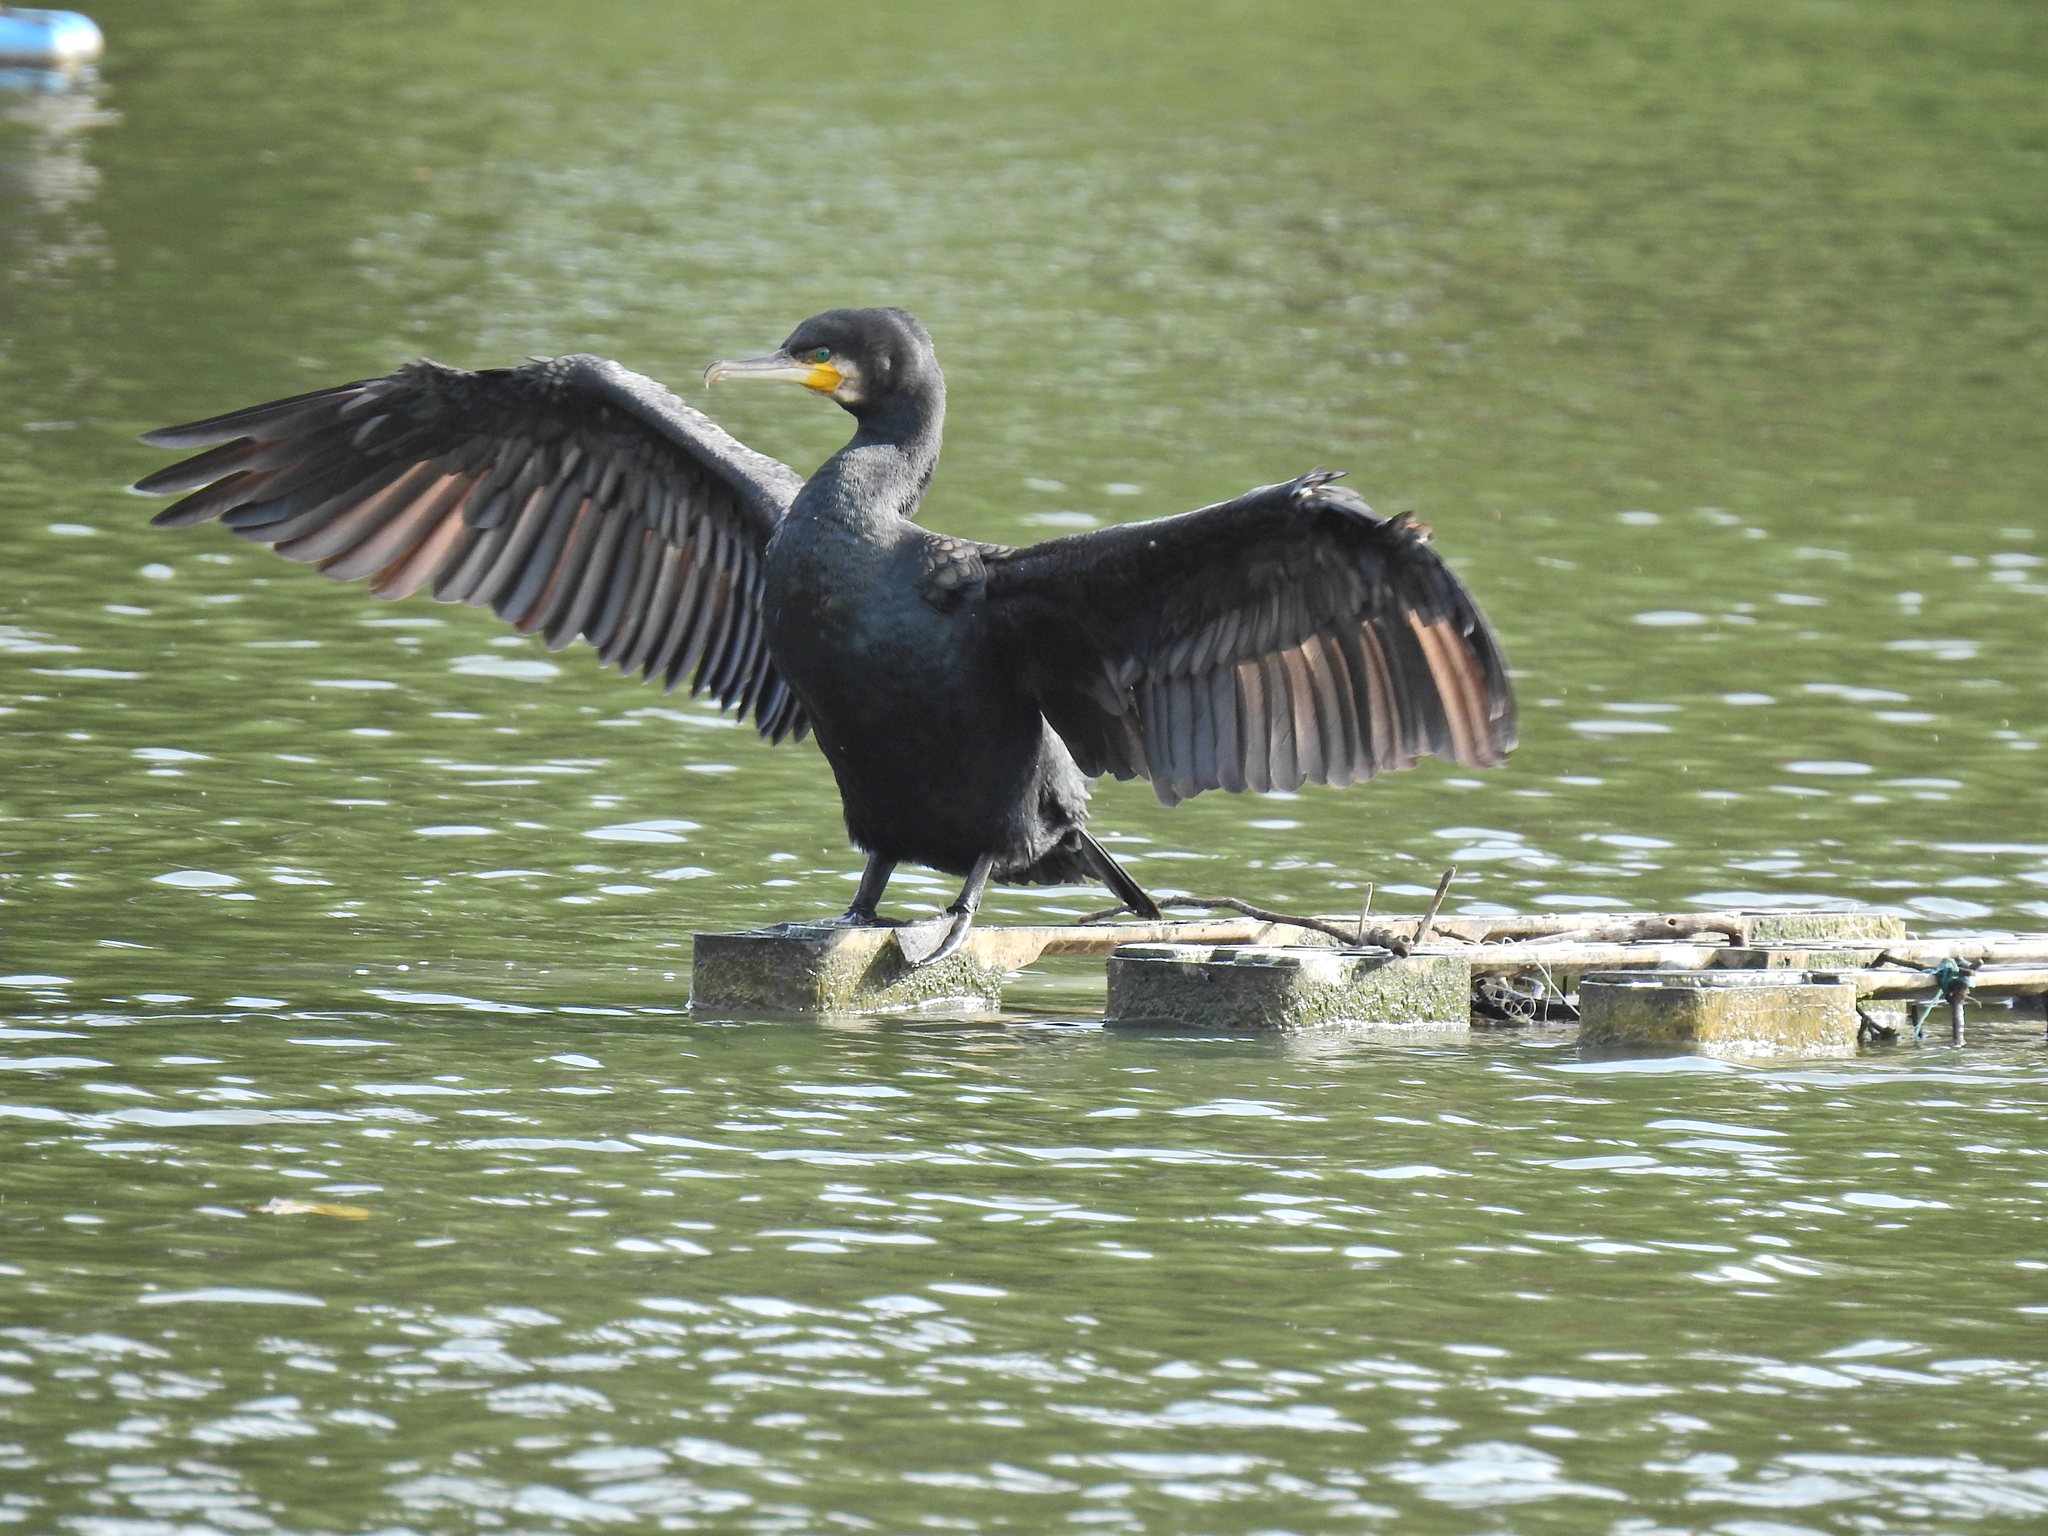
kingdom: Animalia
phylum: Chordata
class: Aves
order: Suliformes
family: Phalacrocoracidae
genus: Phalacrocorax
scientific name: Phalacrocorax carbo
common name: Great cormorant
